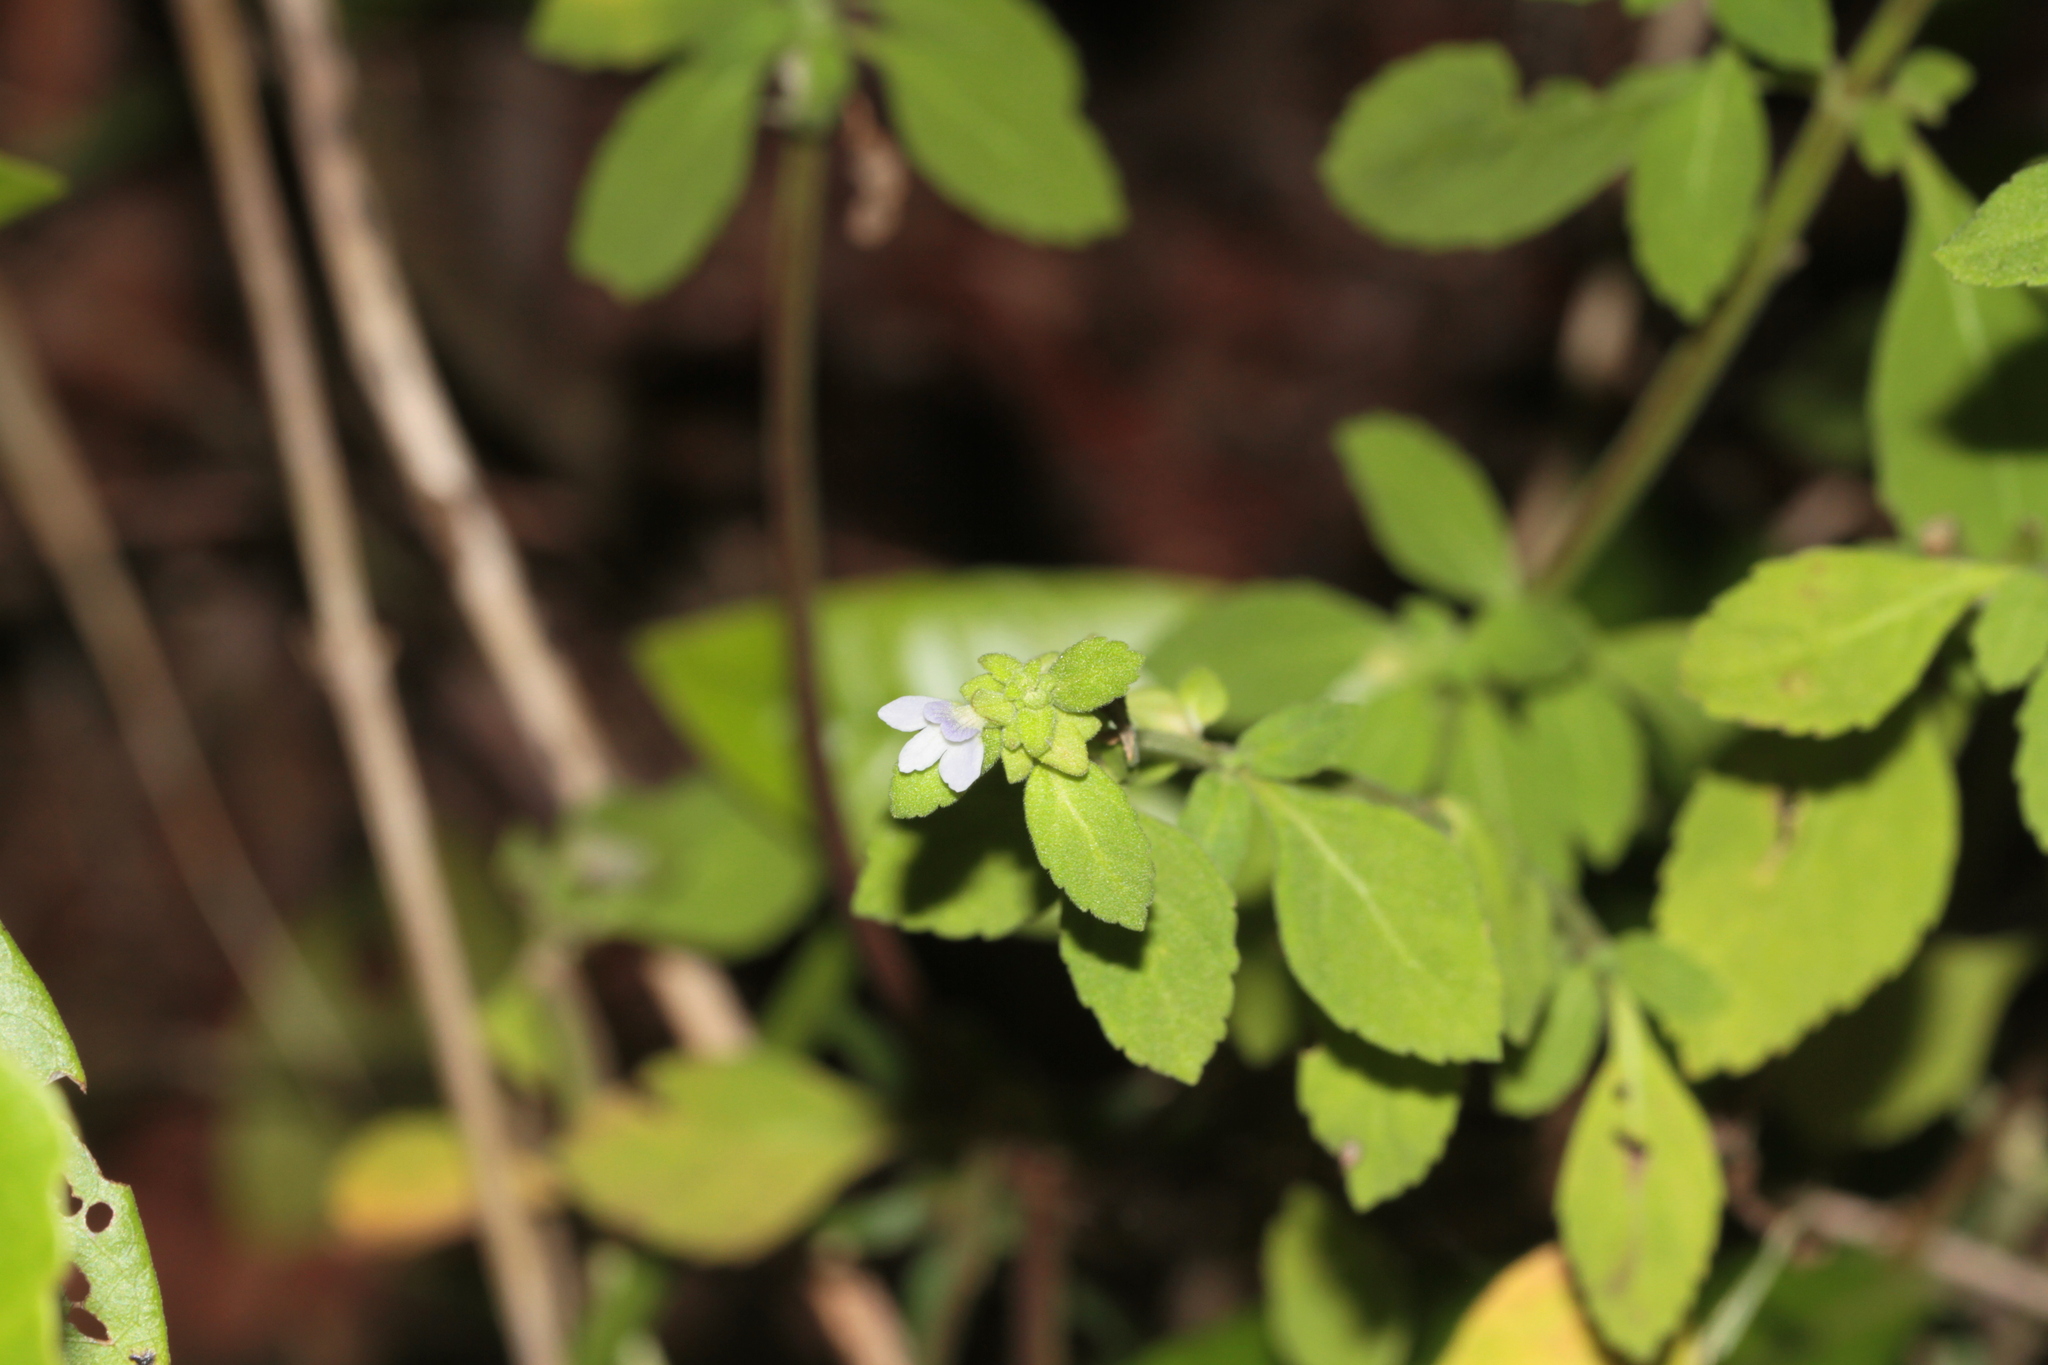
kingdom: Plantae
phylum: Tracheophyta
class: Magnoliopsida
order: Lamiales
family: Plantaginaceae
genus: Matourea
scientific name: Matourea pratensis
